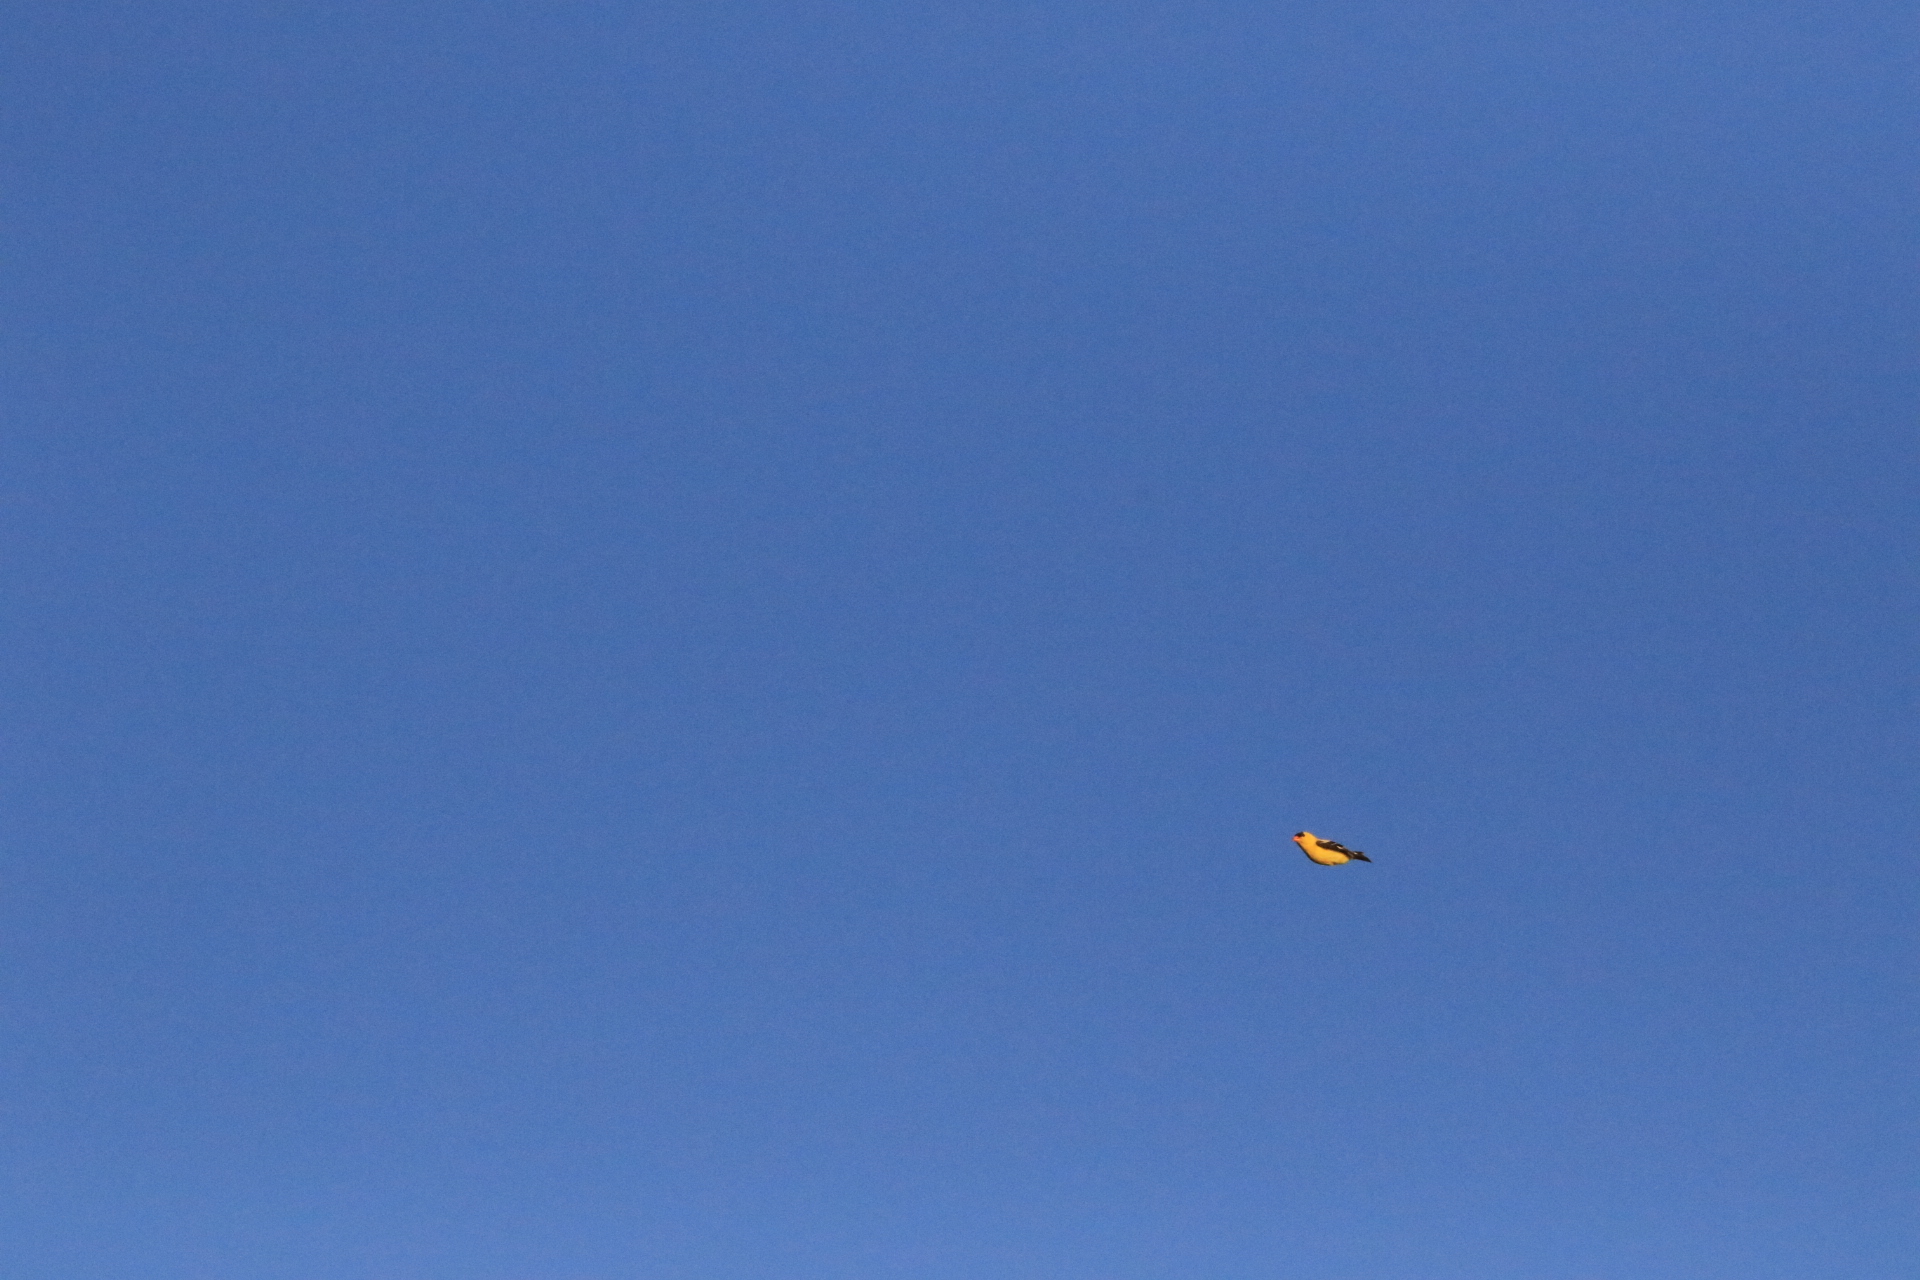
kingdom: Animalia
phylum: Chordata
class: Aves
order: Passeriformes
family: Fringillidae
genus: Spinus
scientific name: Spinus tristis
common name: American goldfinch
